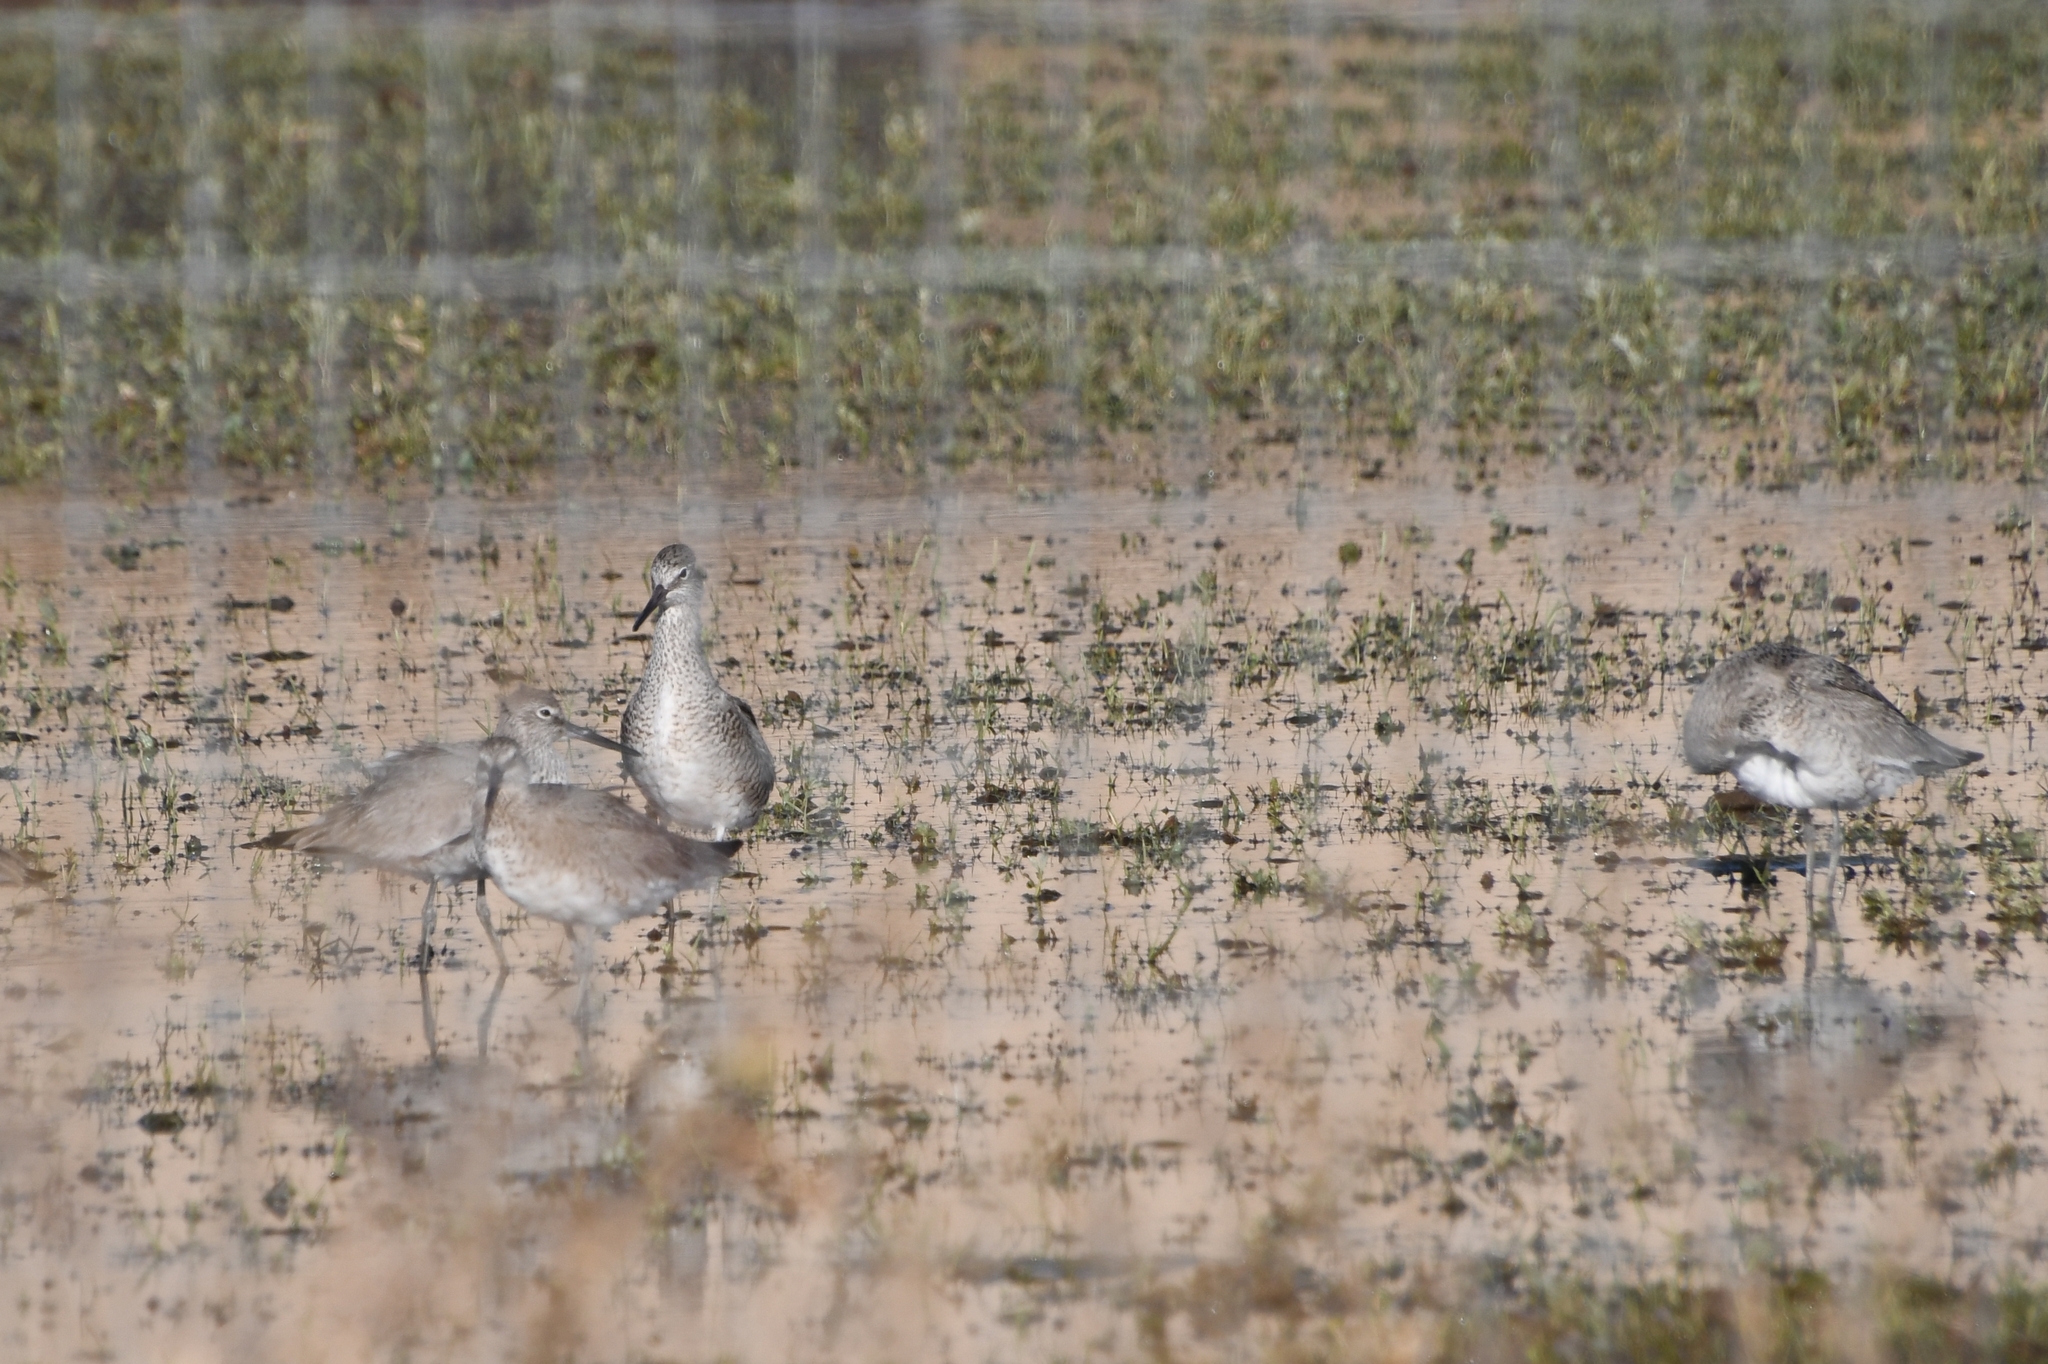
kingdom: Animalia
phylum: Chordata
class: Aves
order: Charadriiformes
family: Scolopacidae
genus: Tringa
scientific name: Tringa semipalmata
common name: Willet
